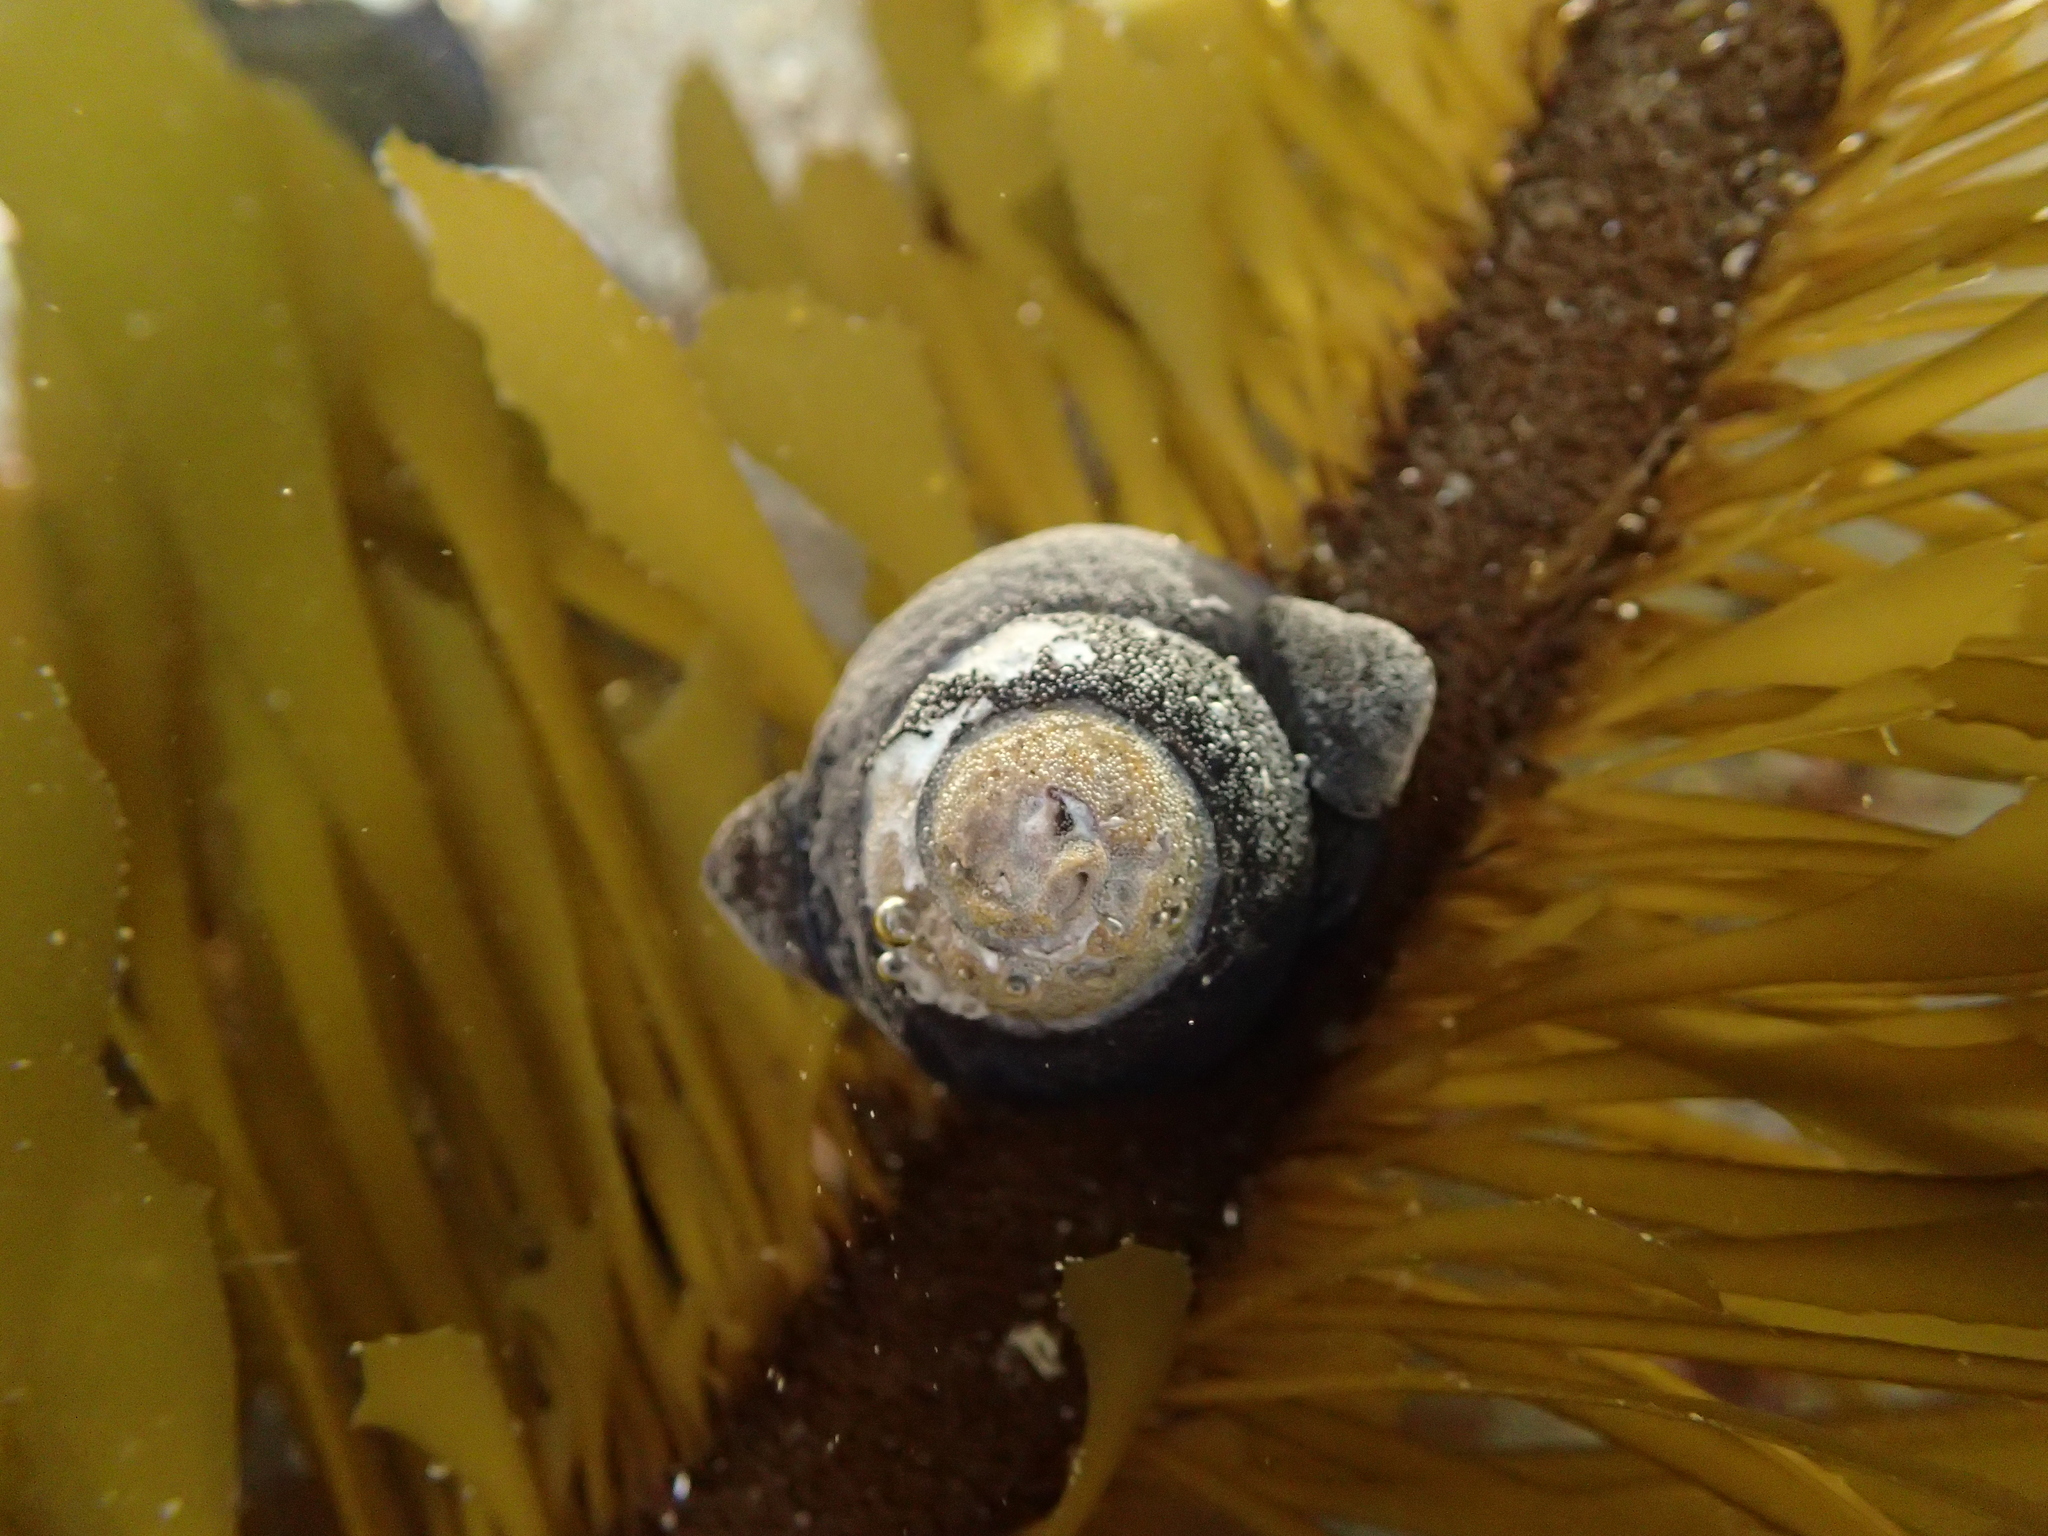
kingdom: Animalia
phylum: Mollusca
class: Gastropoda
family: Lottiidae
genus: Lottia
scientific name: Lottia asmi
